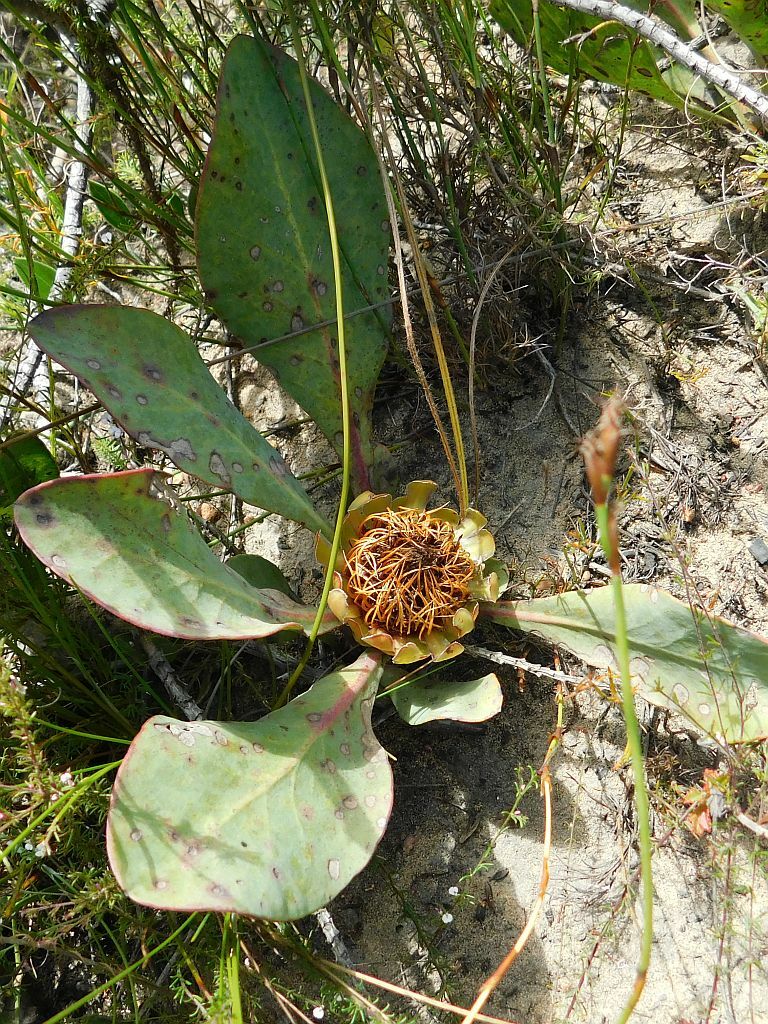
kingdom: Plantae
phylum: Tracheophyta
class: Magnoliopsida
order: Proteales
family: Proteaceae
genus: Protea
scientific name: Protea acaulos
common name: Common ground sugarbush
